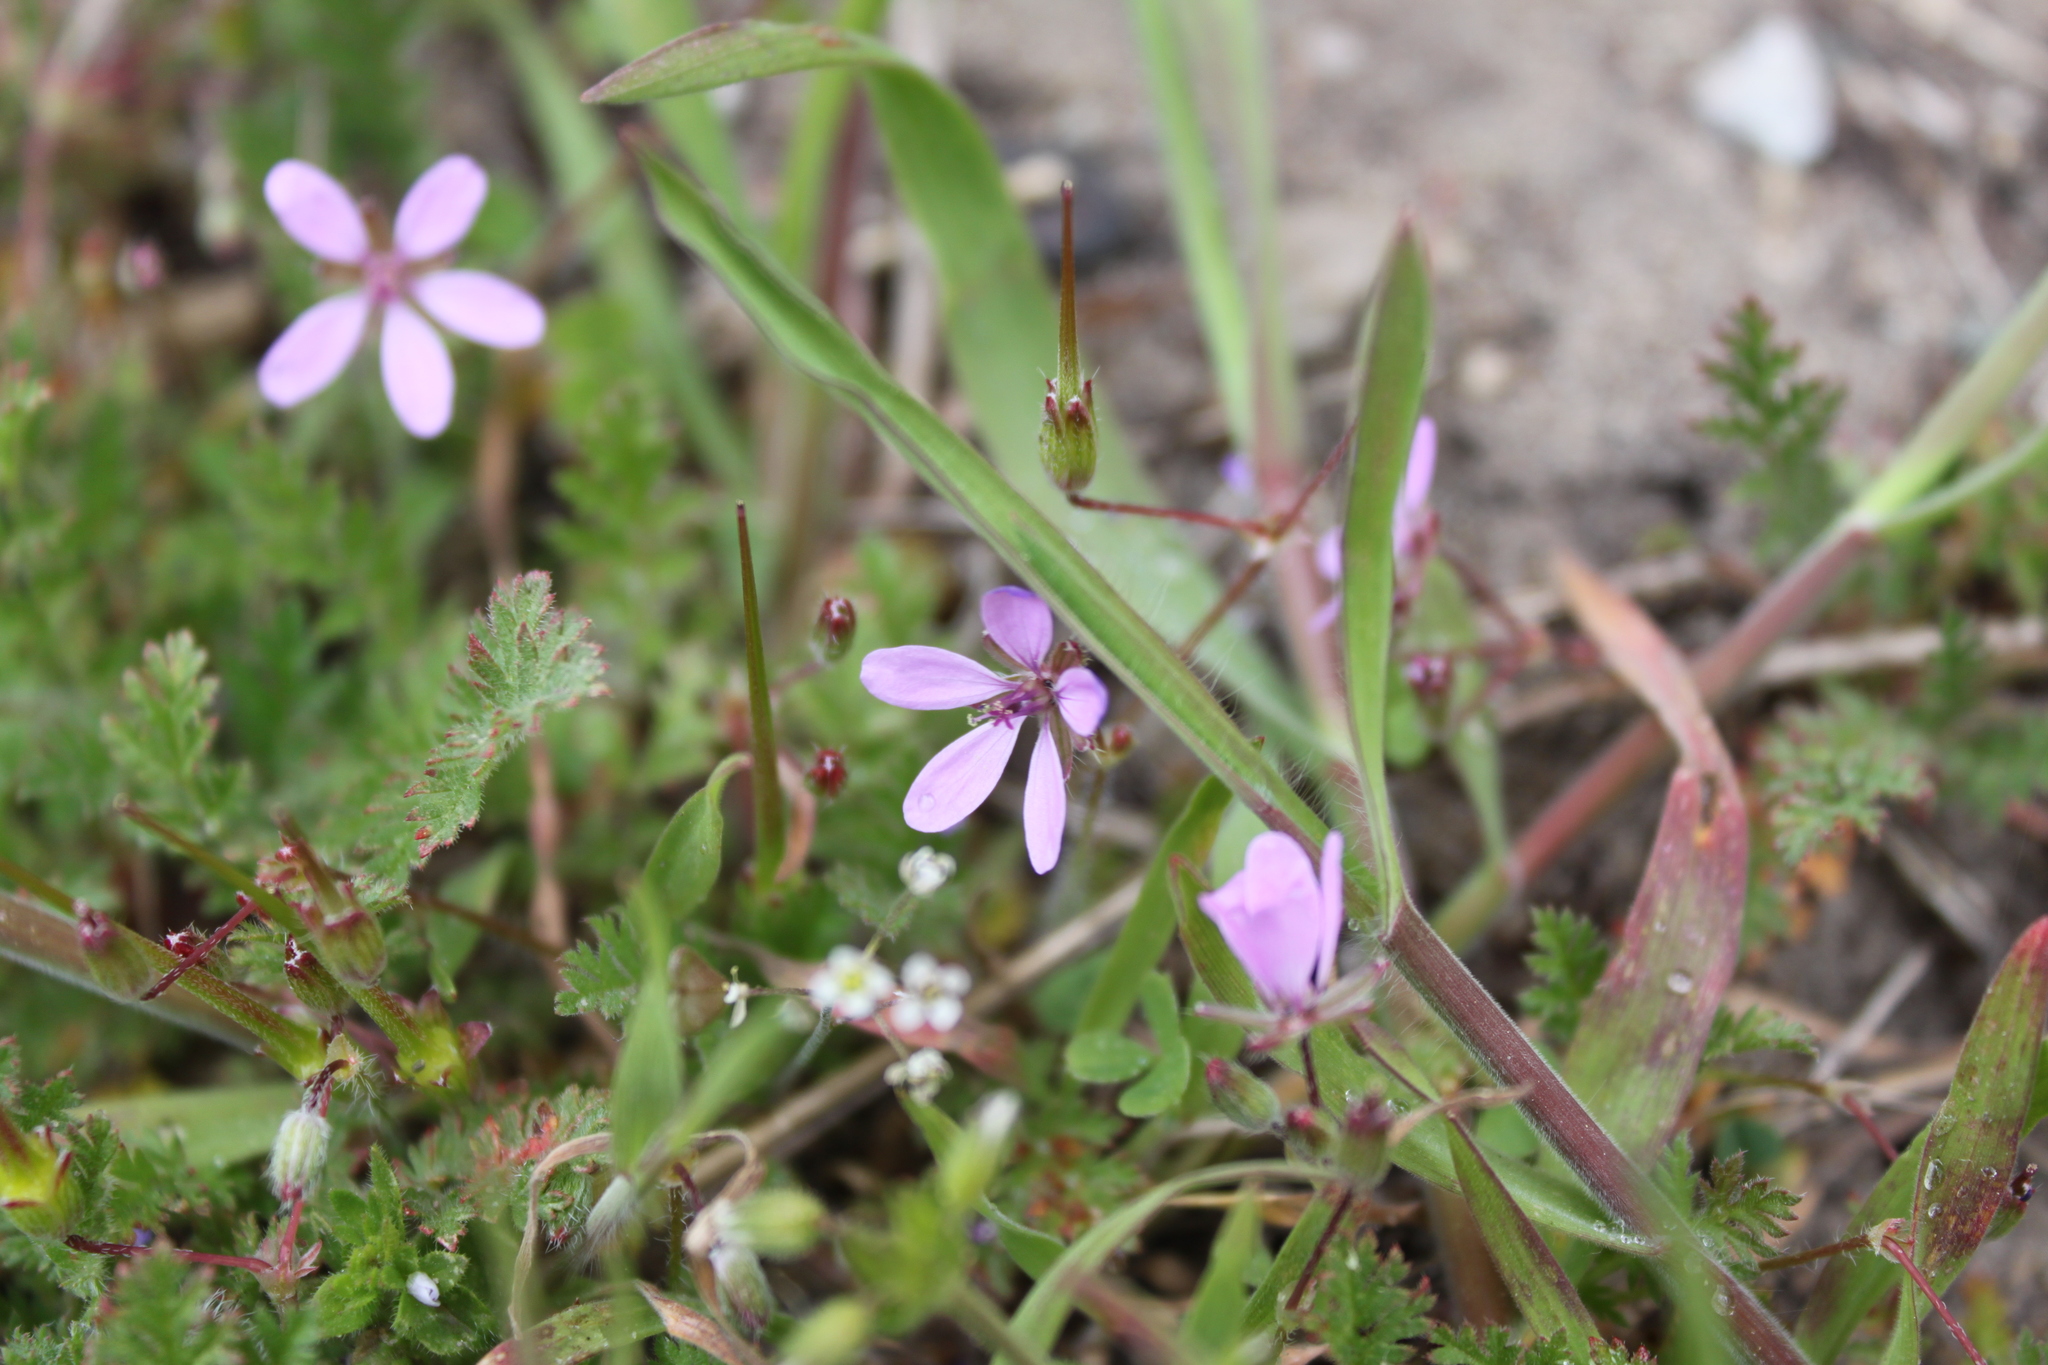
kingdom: Plantae
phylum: Tracheophyta
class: Magnoliopsida
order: Geraniales
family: Geraniaceae
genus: Erodium
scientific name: Erodium cicutarium
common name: Common stork's-bill
